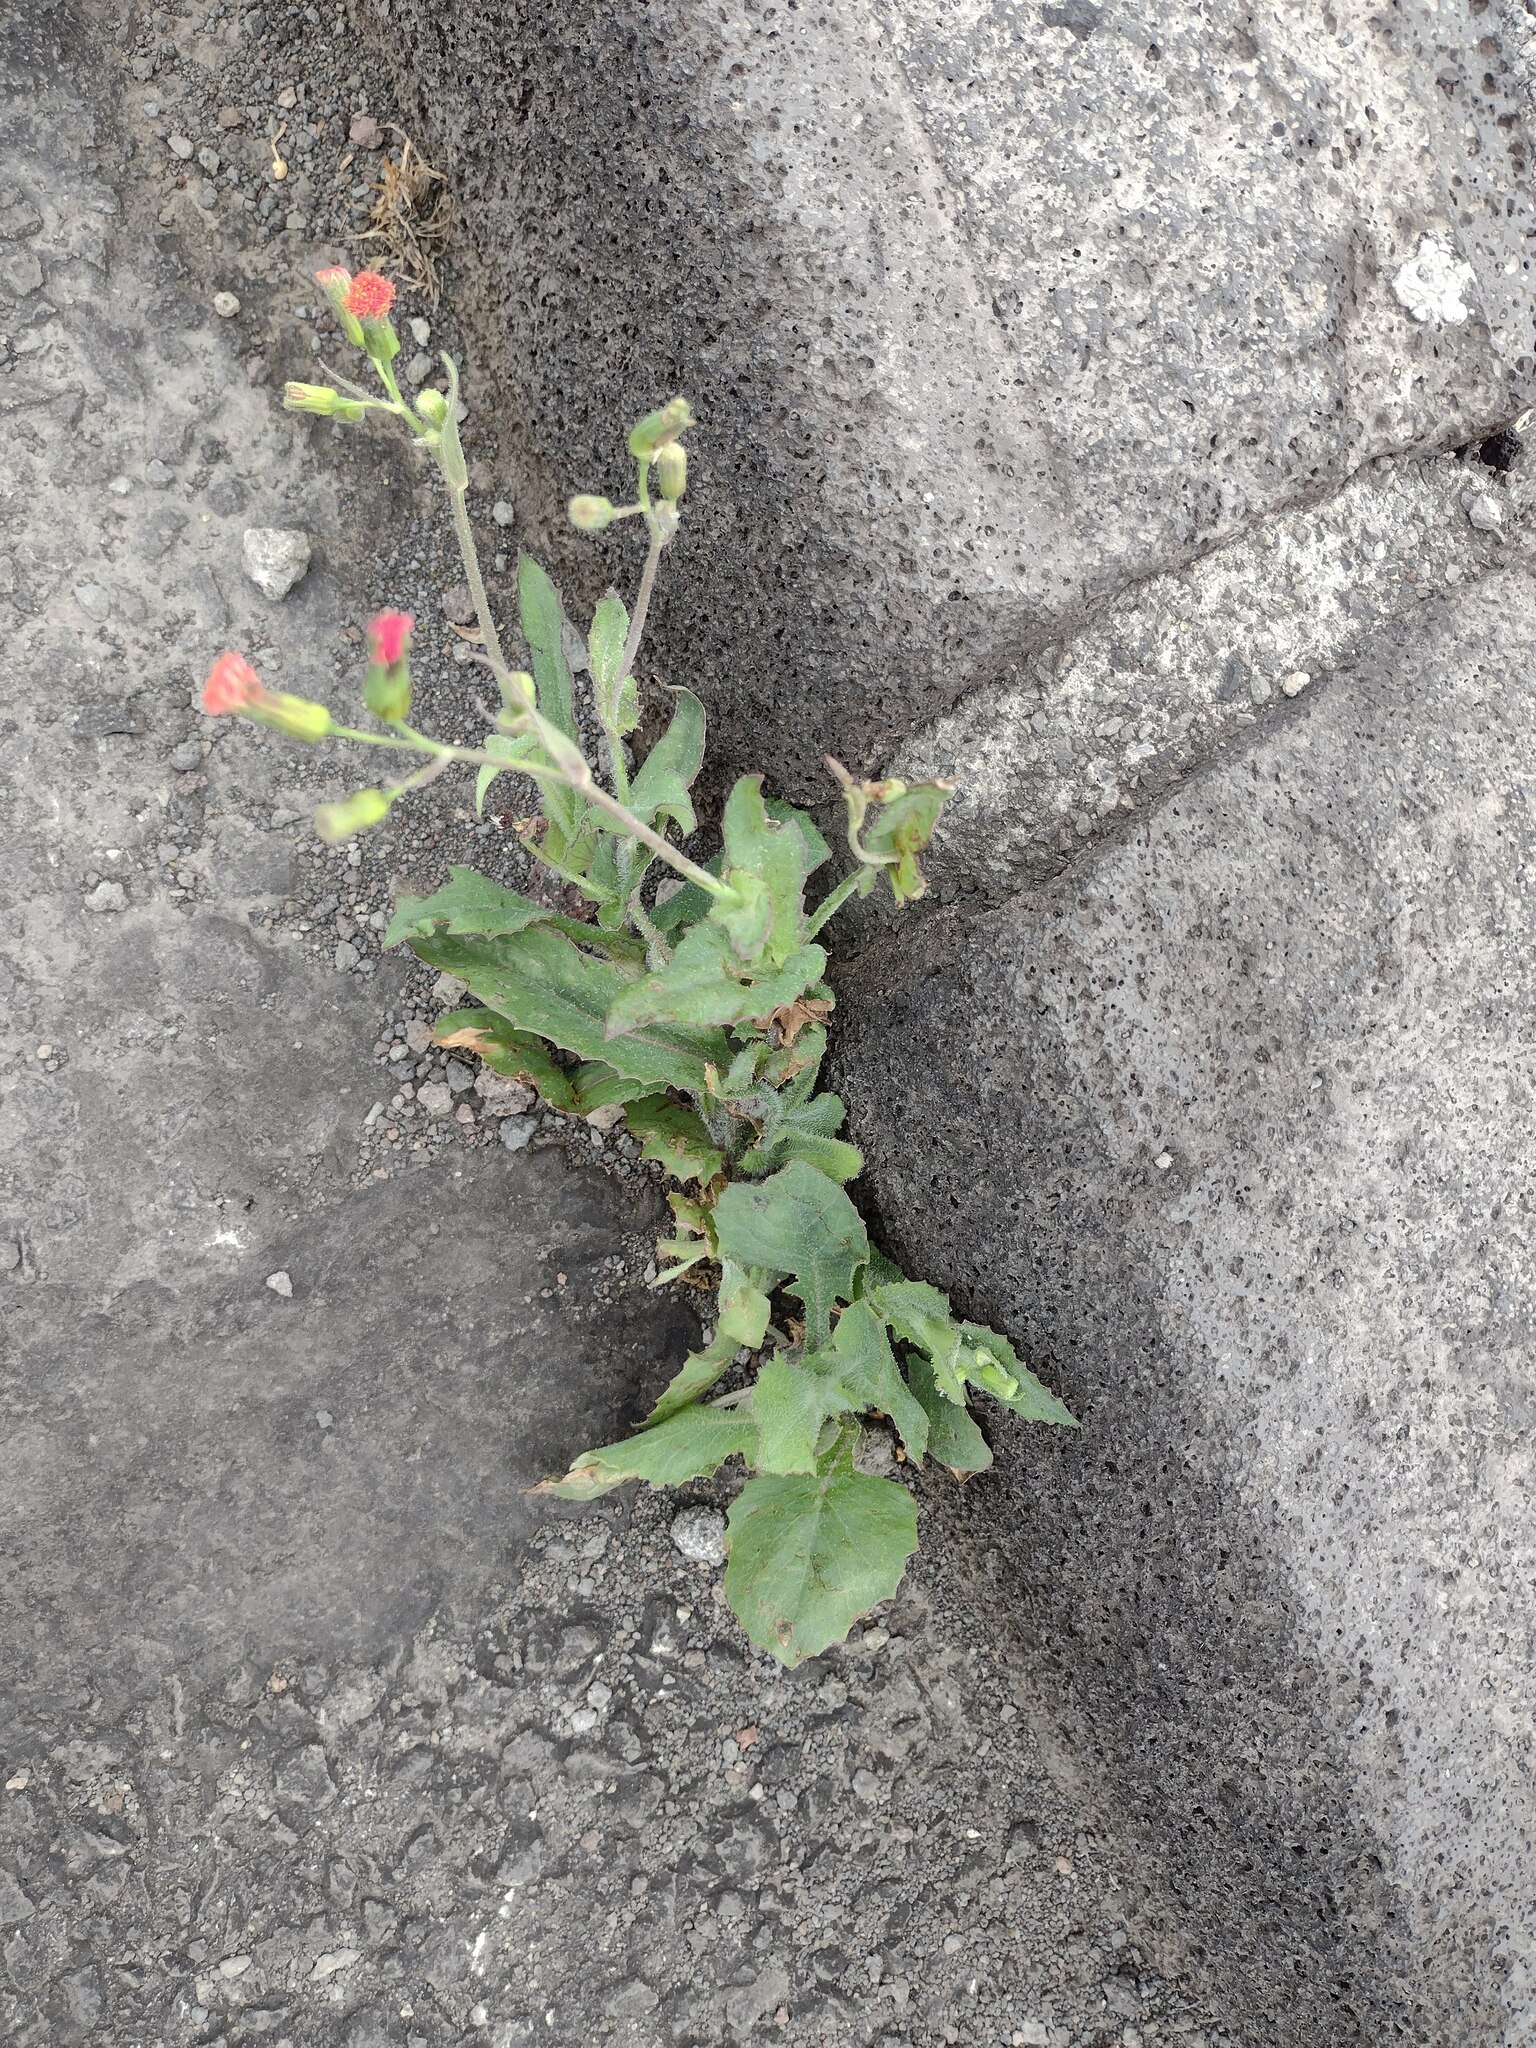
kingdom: Plantae
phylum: Tracheophyta
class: Magnoliopsida
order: Asterales
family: Asteraceae
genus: Emilia
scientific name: Emilia fosbergii
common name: Florida tasselflower
